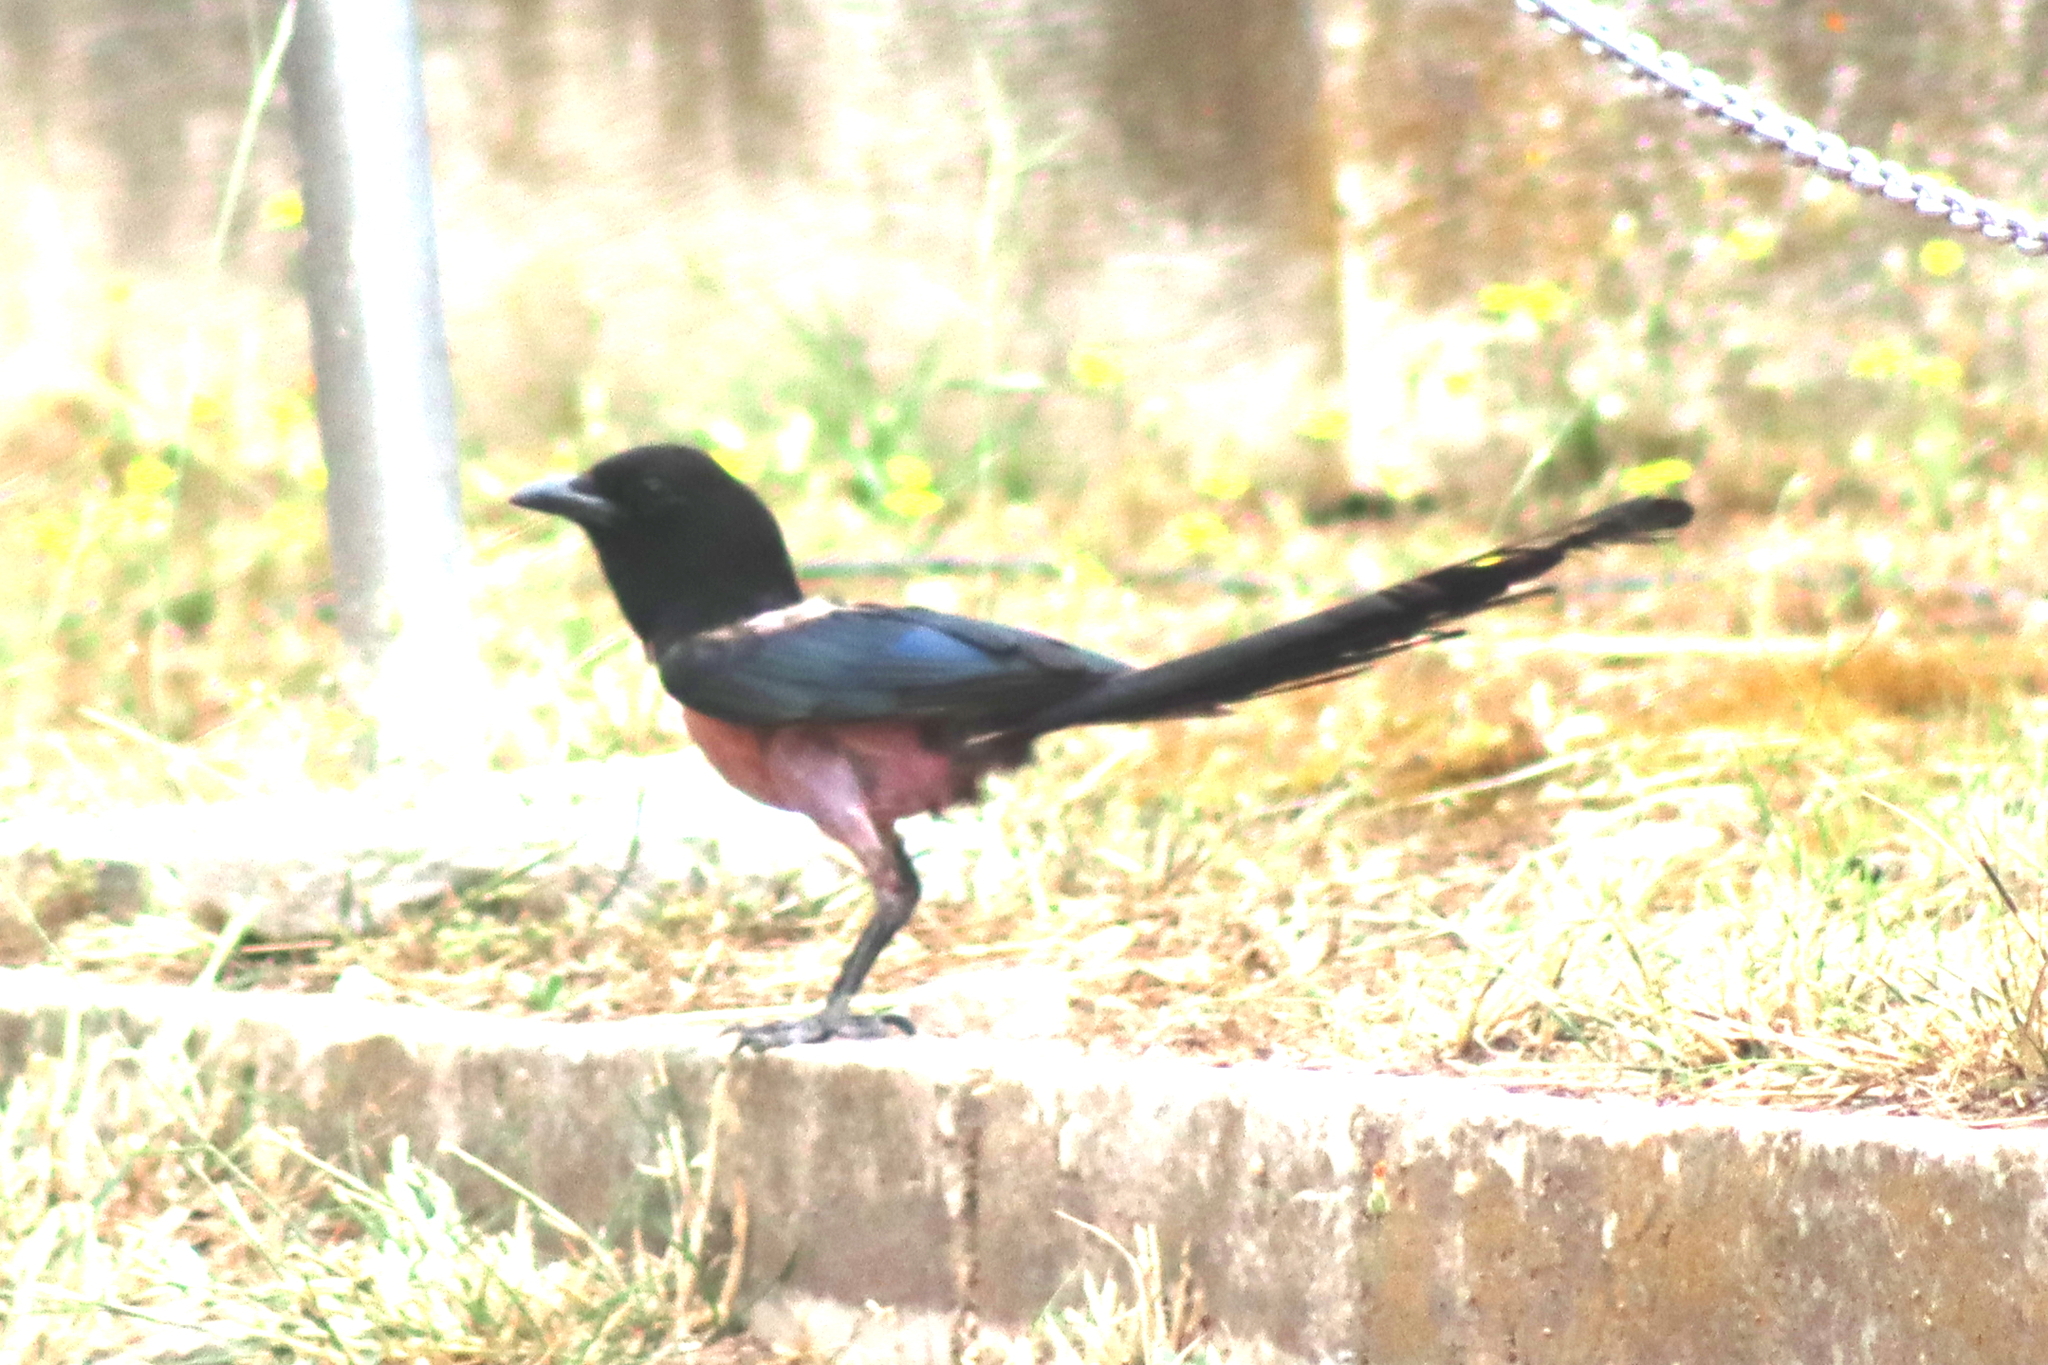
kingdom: Animalia
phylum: Chordata
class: Aves
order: Passeriformes
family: Corvidae
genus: Pica
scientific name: Pica pica
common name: Eurasian magpie
